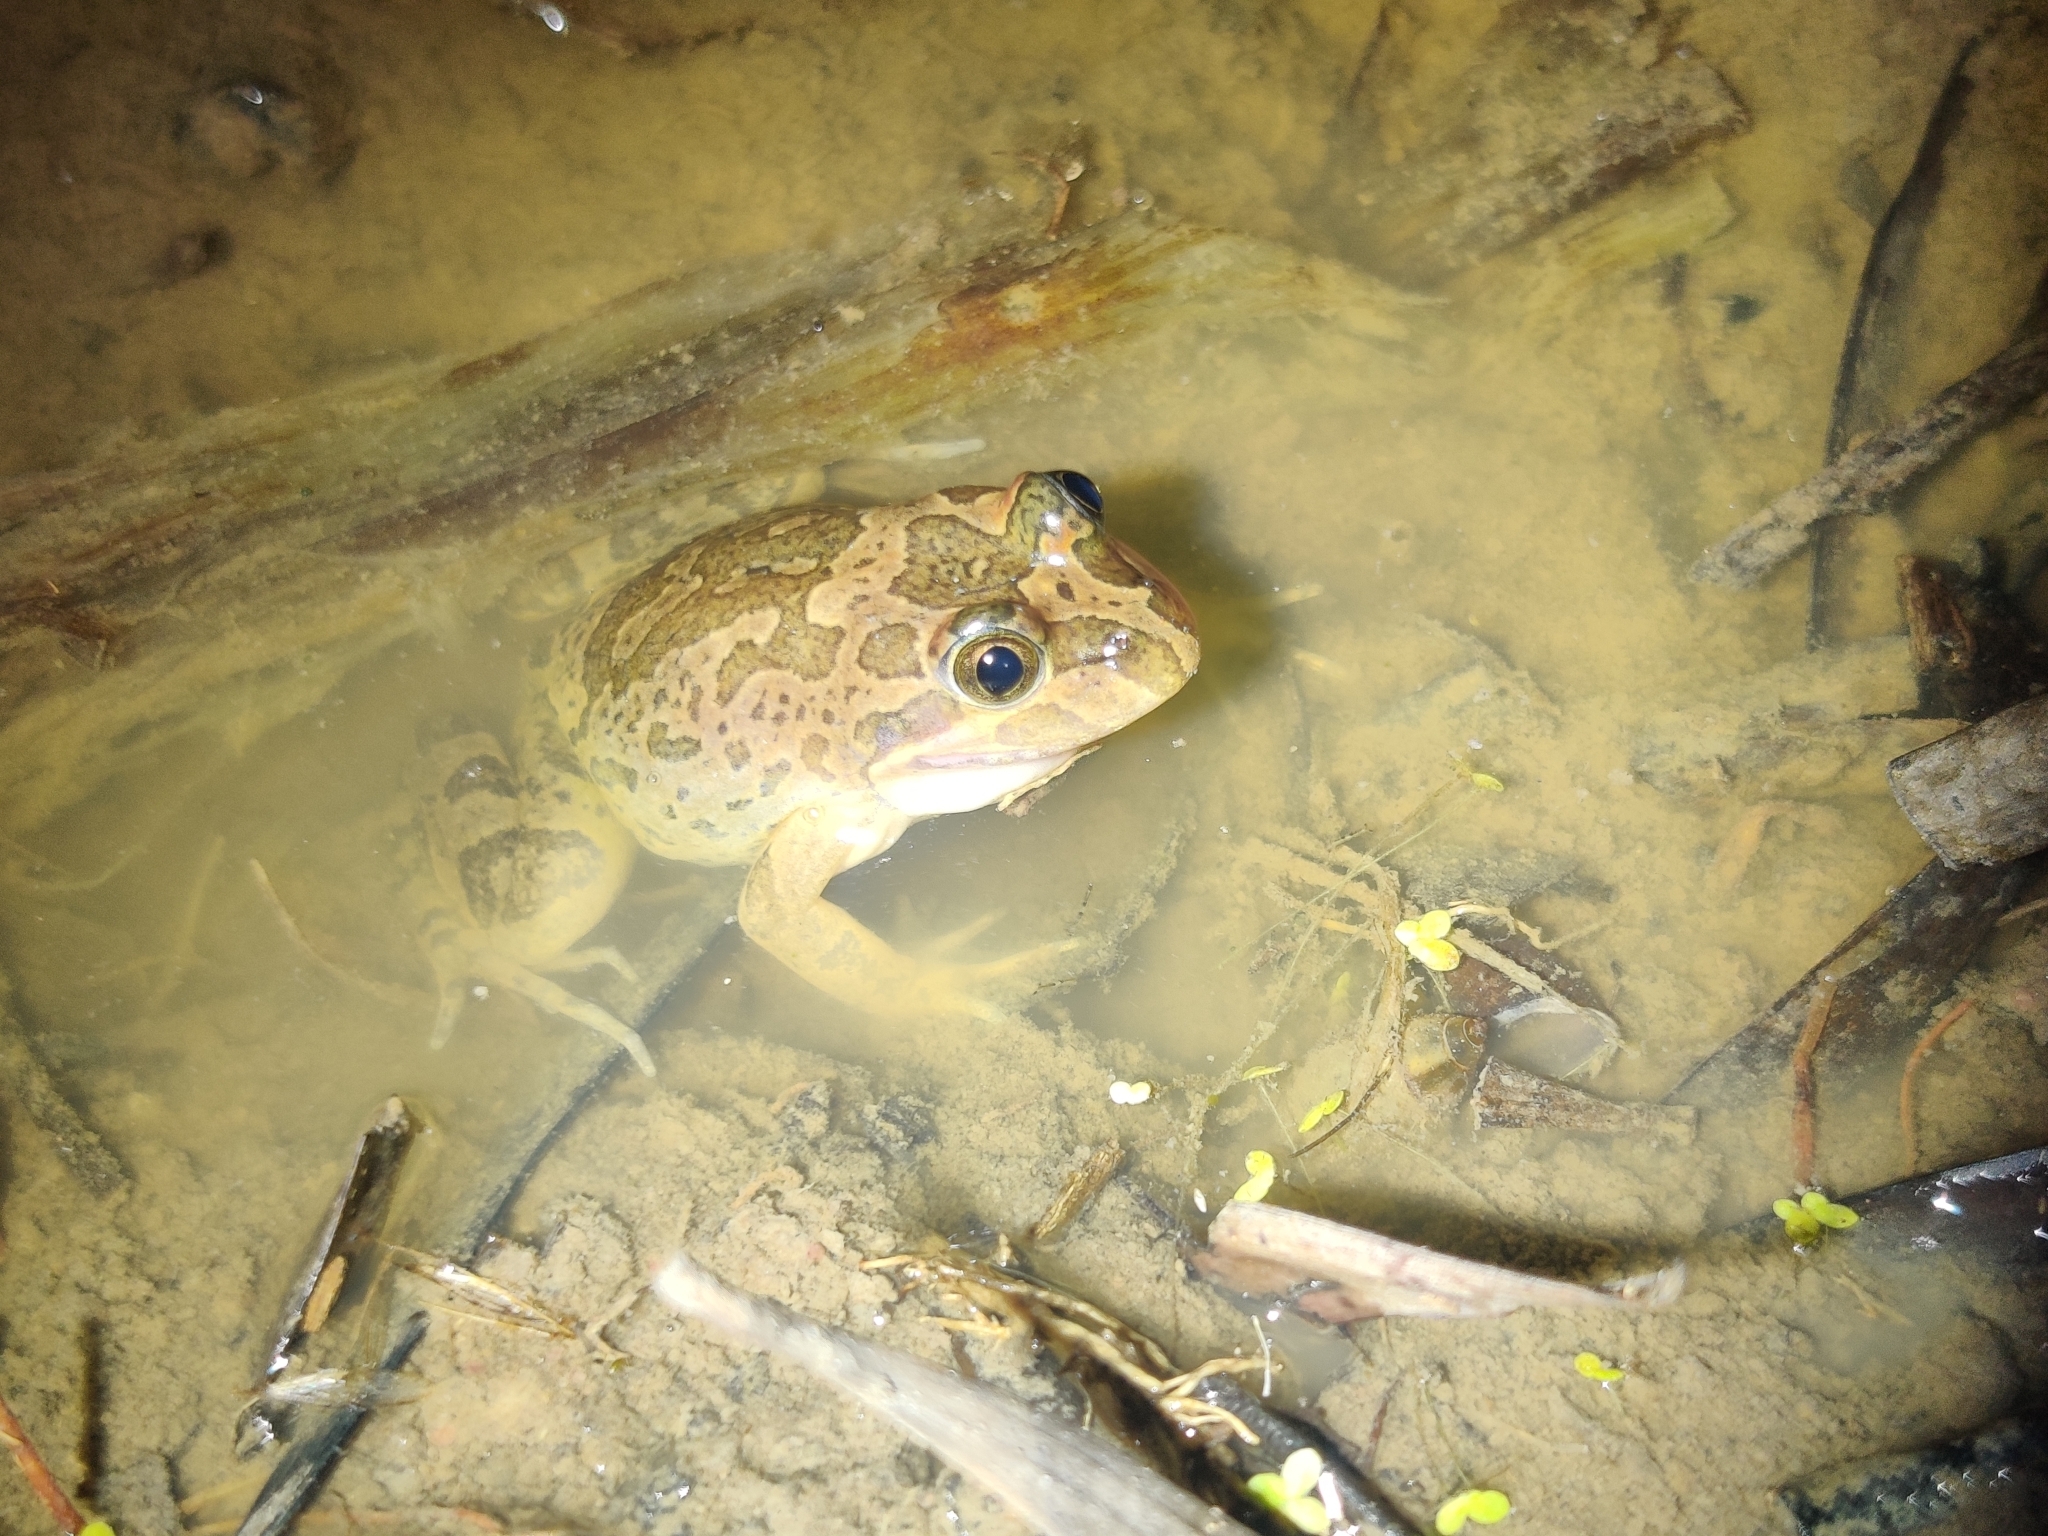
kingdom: Animalia
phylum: Chordata
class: Amphibia
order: Anura
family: Limnodynastidae
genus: Limnodynastes
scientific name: Limnodynastes fletcheri
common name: Barking frog
